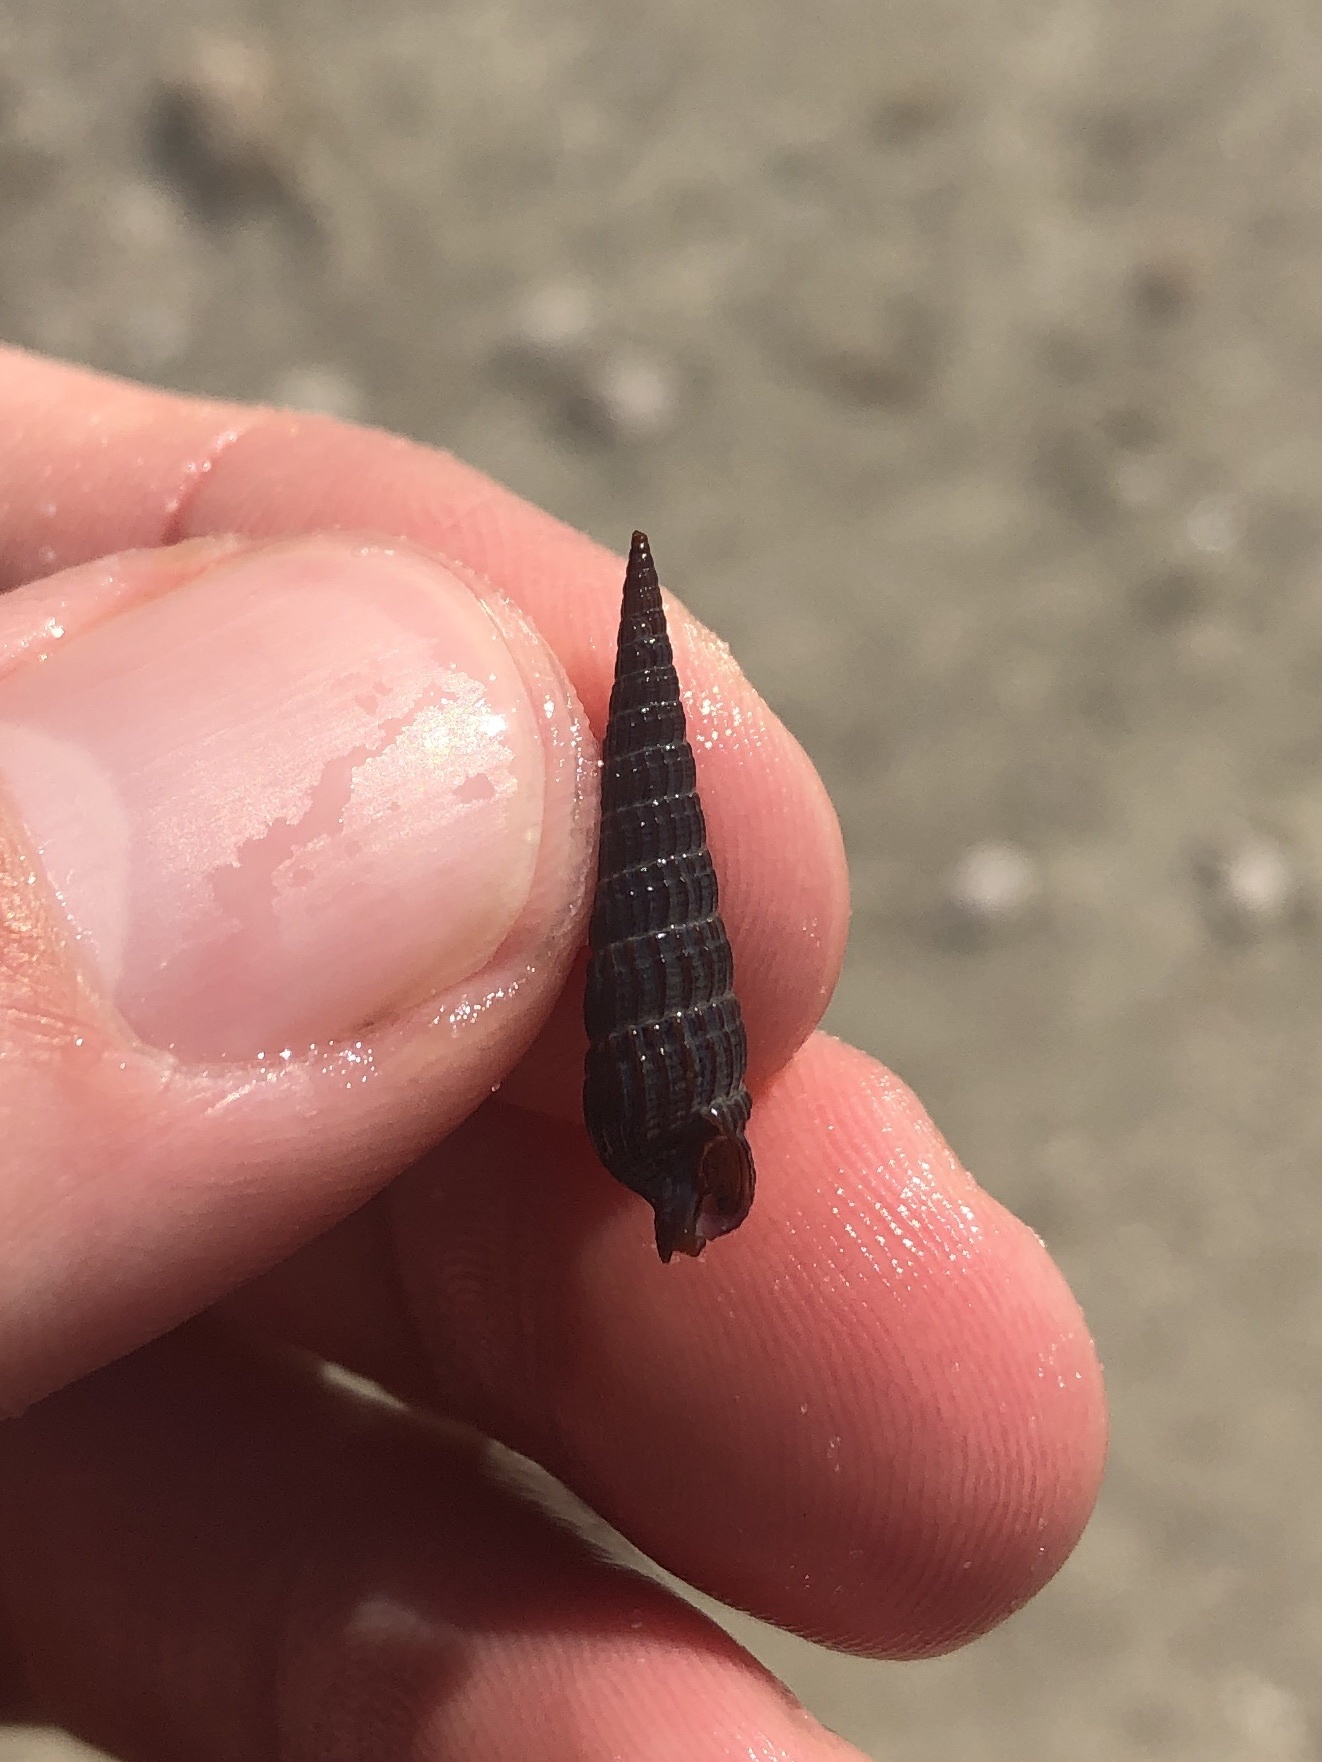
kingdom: Animalia
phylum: Mollusca
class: Gastropoda
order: Neogastropoda
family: Terebridae
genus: Neoterebra
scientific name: Neoterebra protexta
